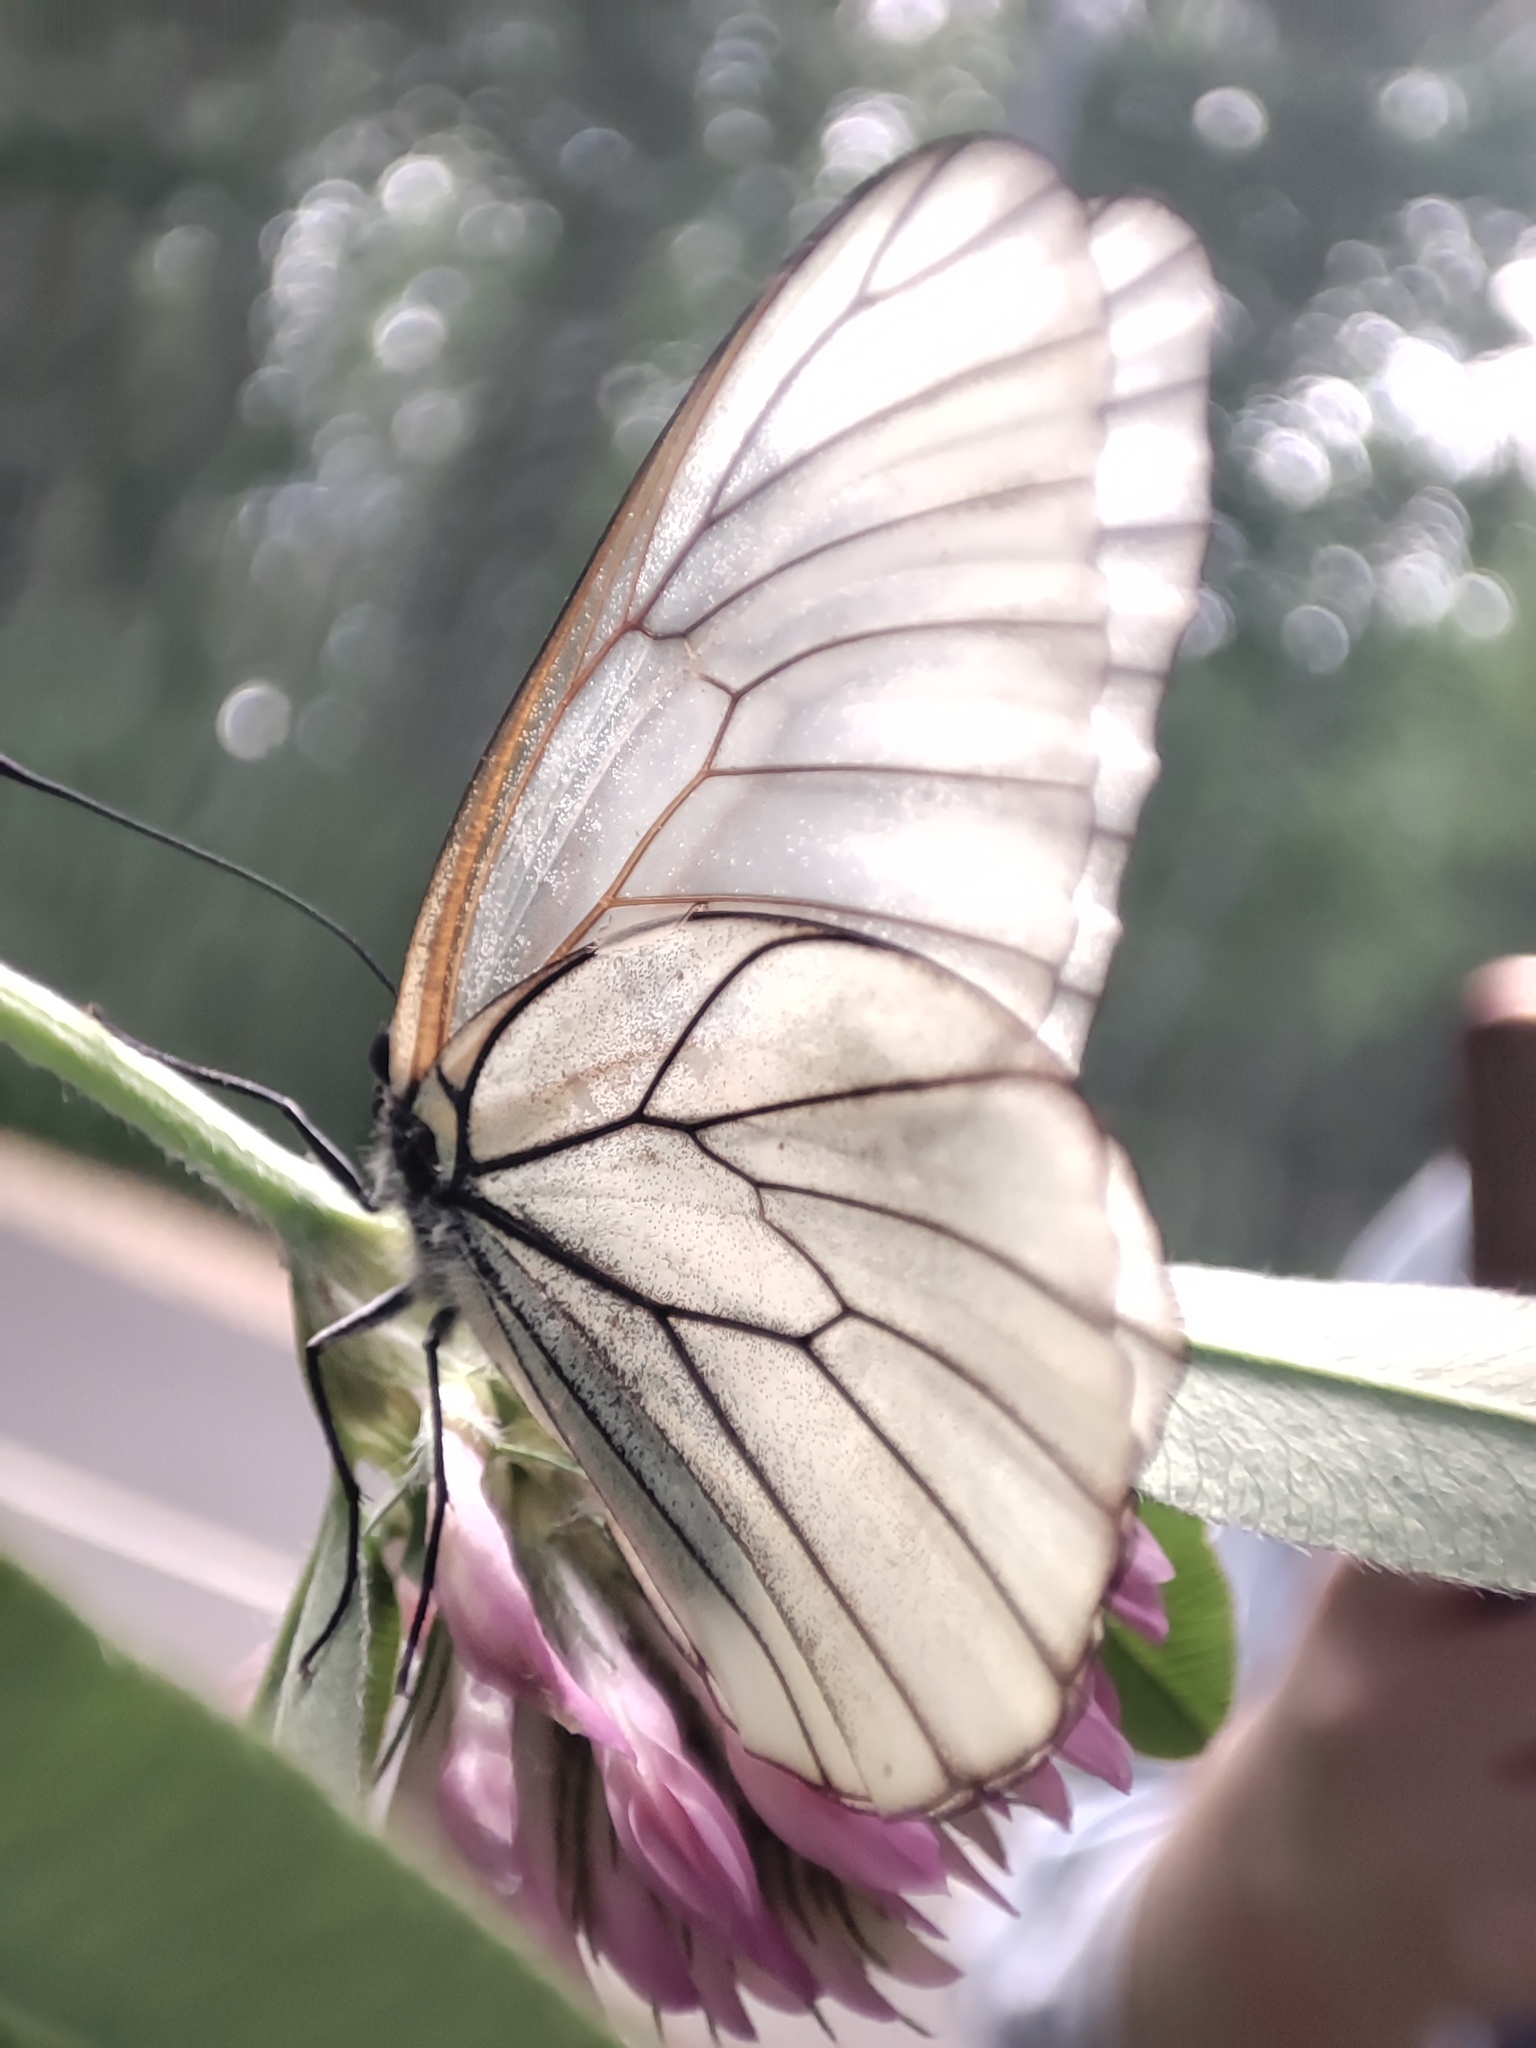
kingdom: Animalia
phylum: Arthropoda
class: Insecta
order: Lepidoptera
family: Pieridae
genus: Aporia
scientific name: Aporia crataegi
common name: Black-veined white
